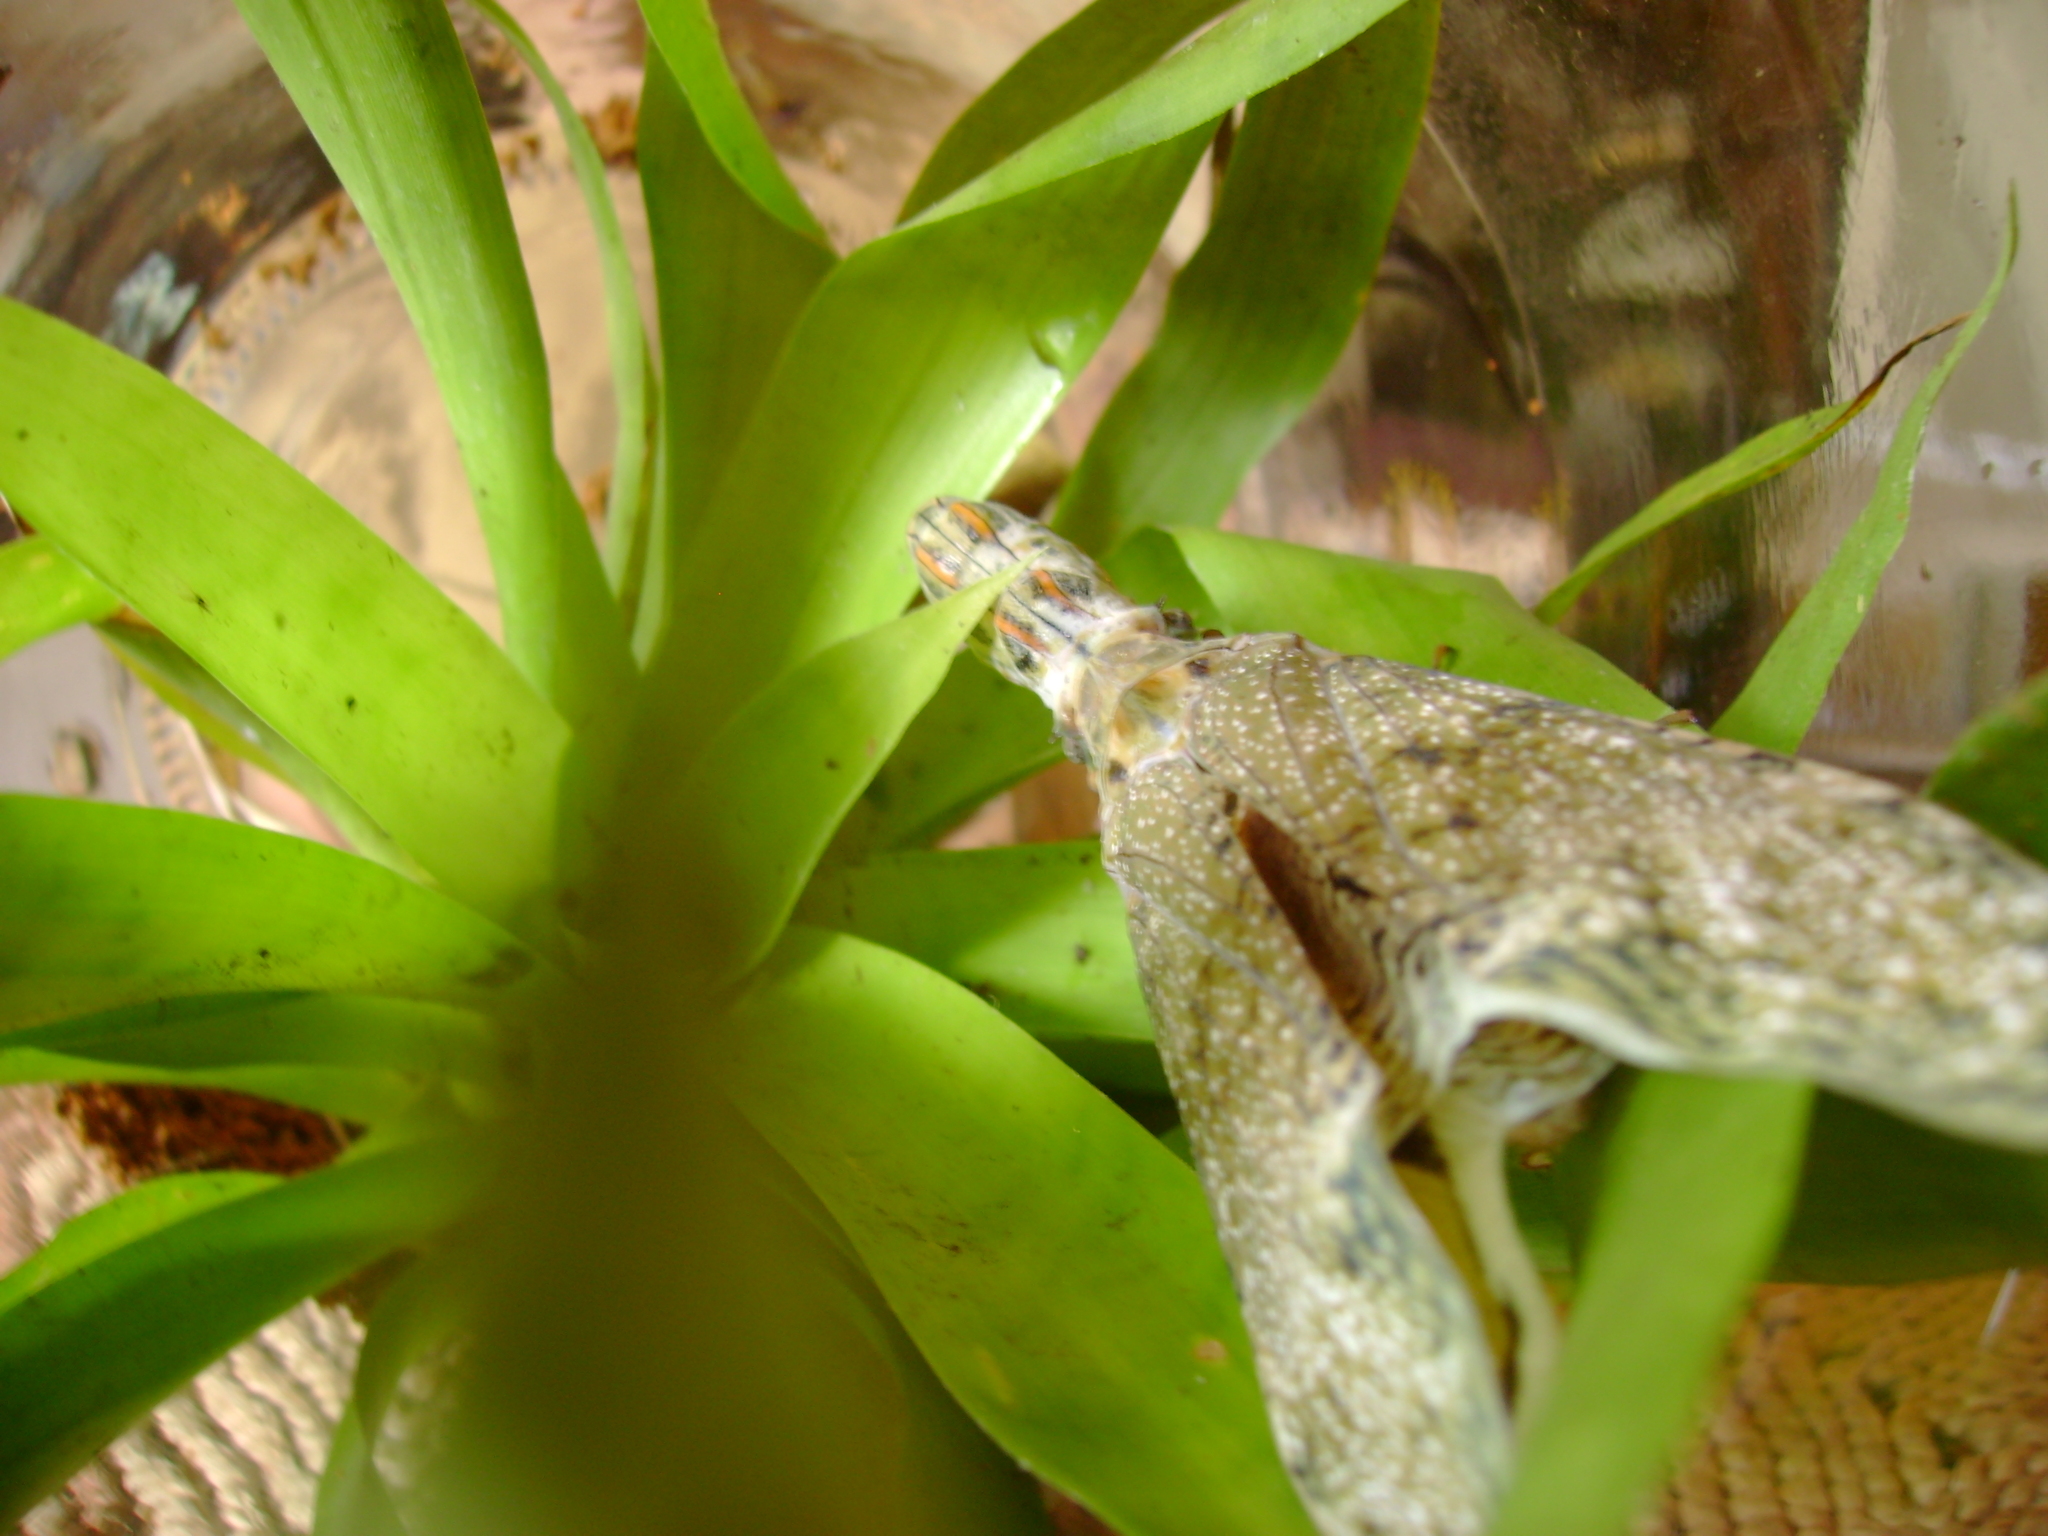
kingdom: Animalia
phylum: Arthropoda
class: Insecta
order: Hemiptera
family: Fulgoridae
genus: Fulgora
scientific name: Fulgora laternaria
